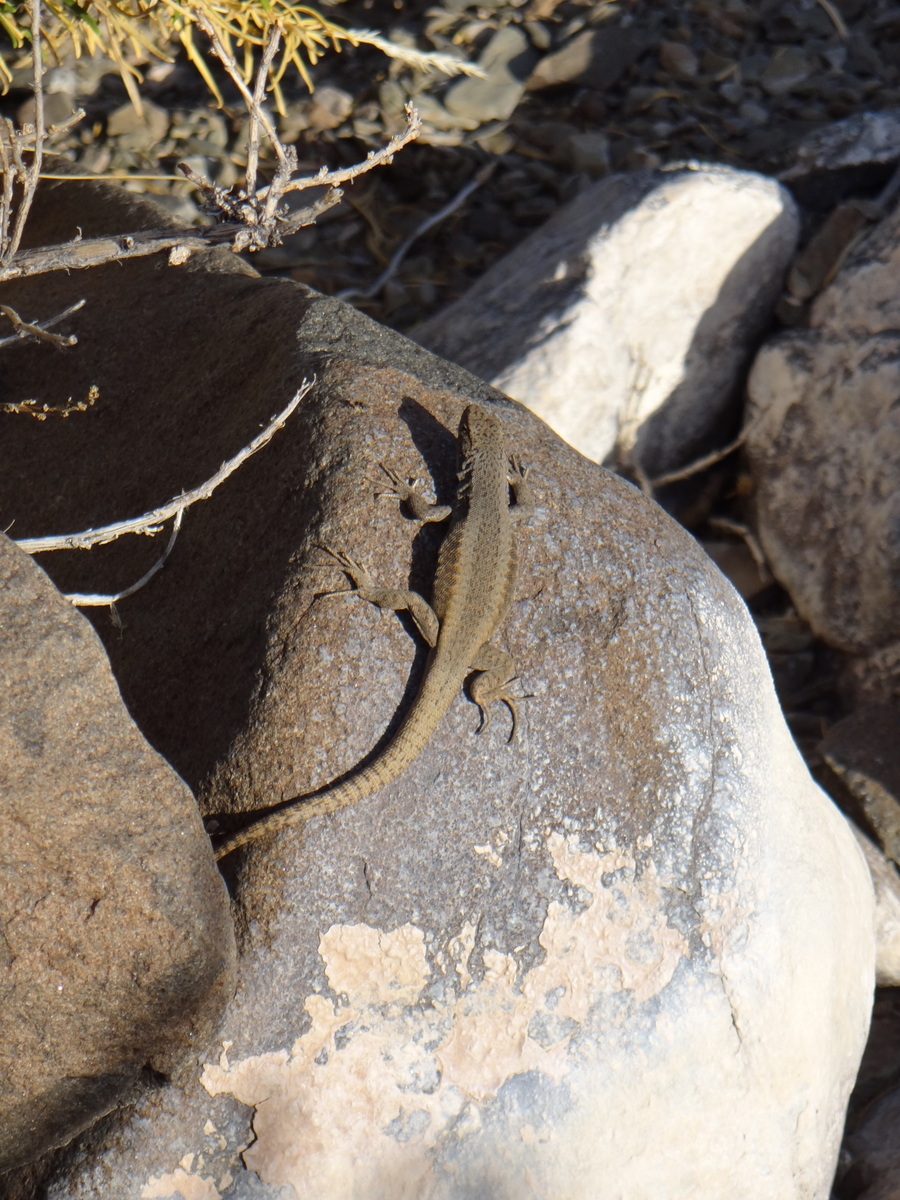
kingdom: Animalia
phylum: Chordata
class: Squamata
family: Liolaemidae
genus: Liolaemus
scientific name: Liolaemus parvus
